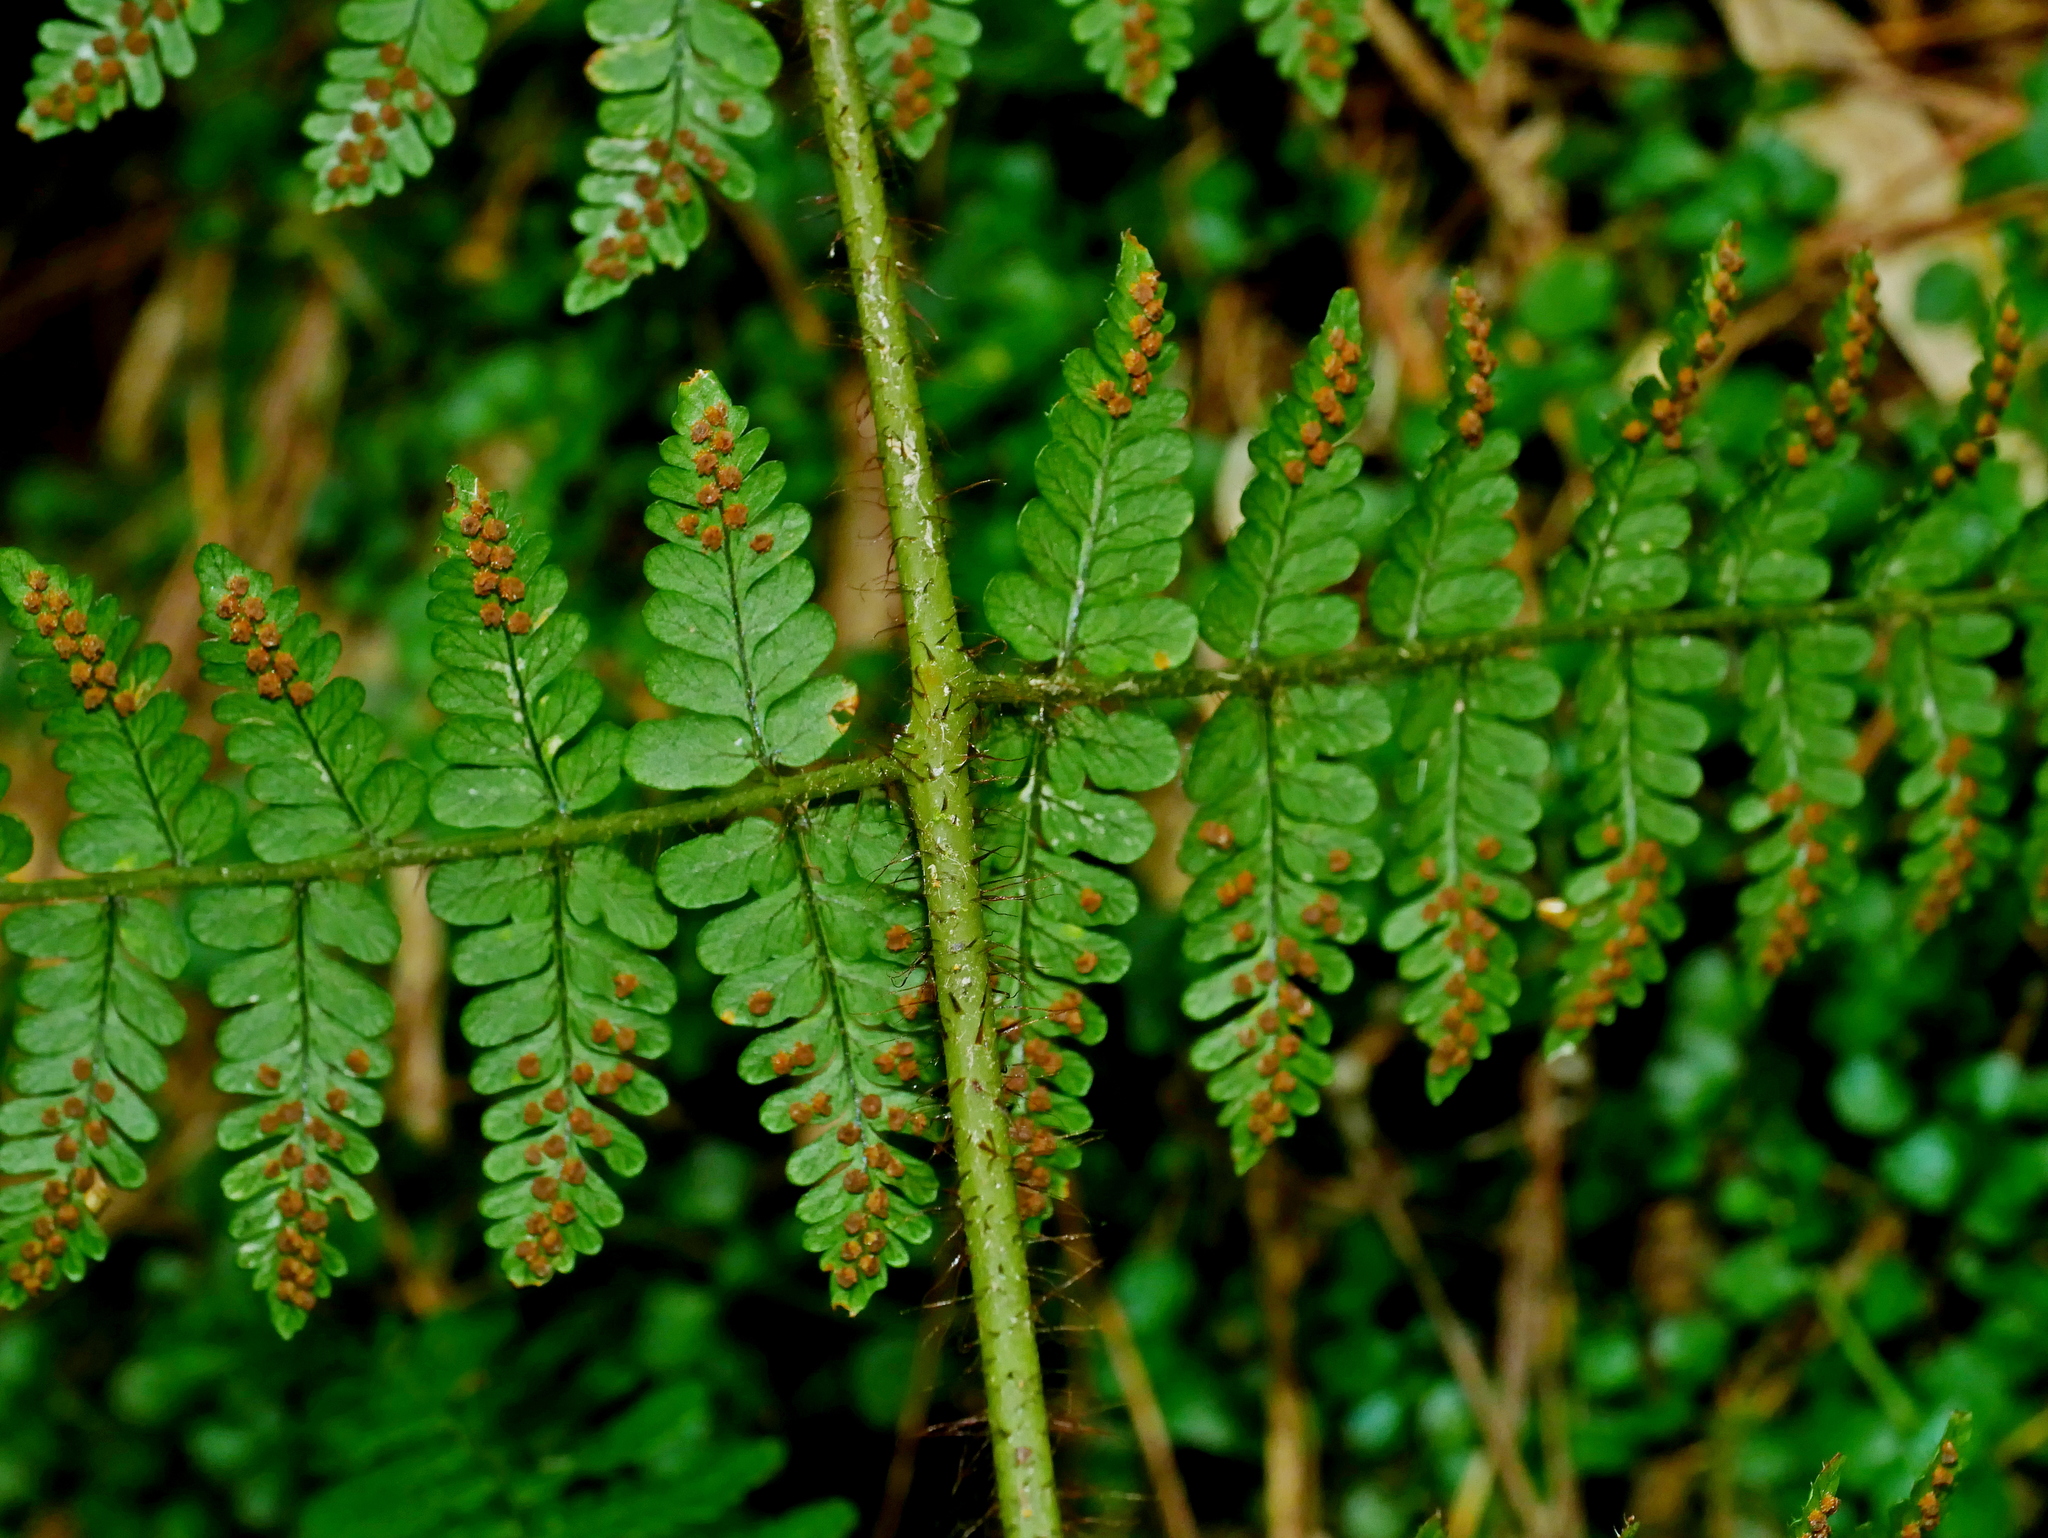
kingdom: Plantae
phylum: Tracheophyta
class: Polypodiopsida
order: Polypodiales
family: Dryopteridaceae
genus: Dryopteris
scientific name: Dryopteris squamiseta
